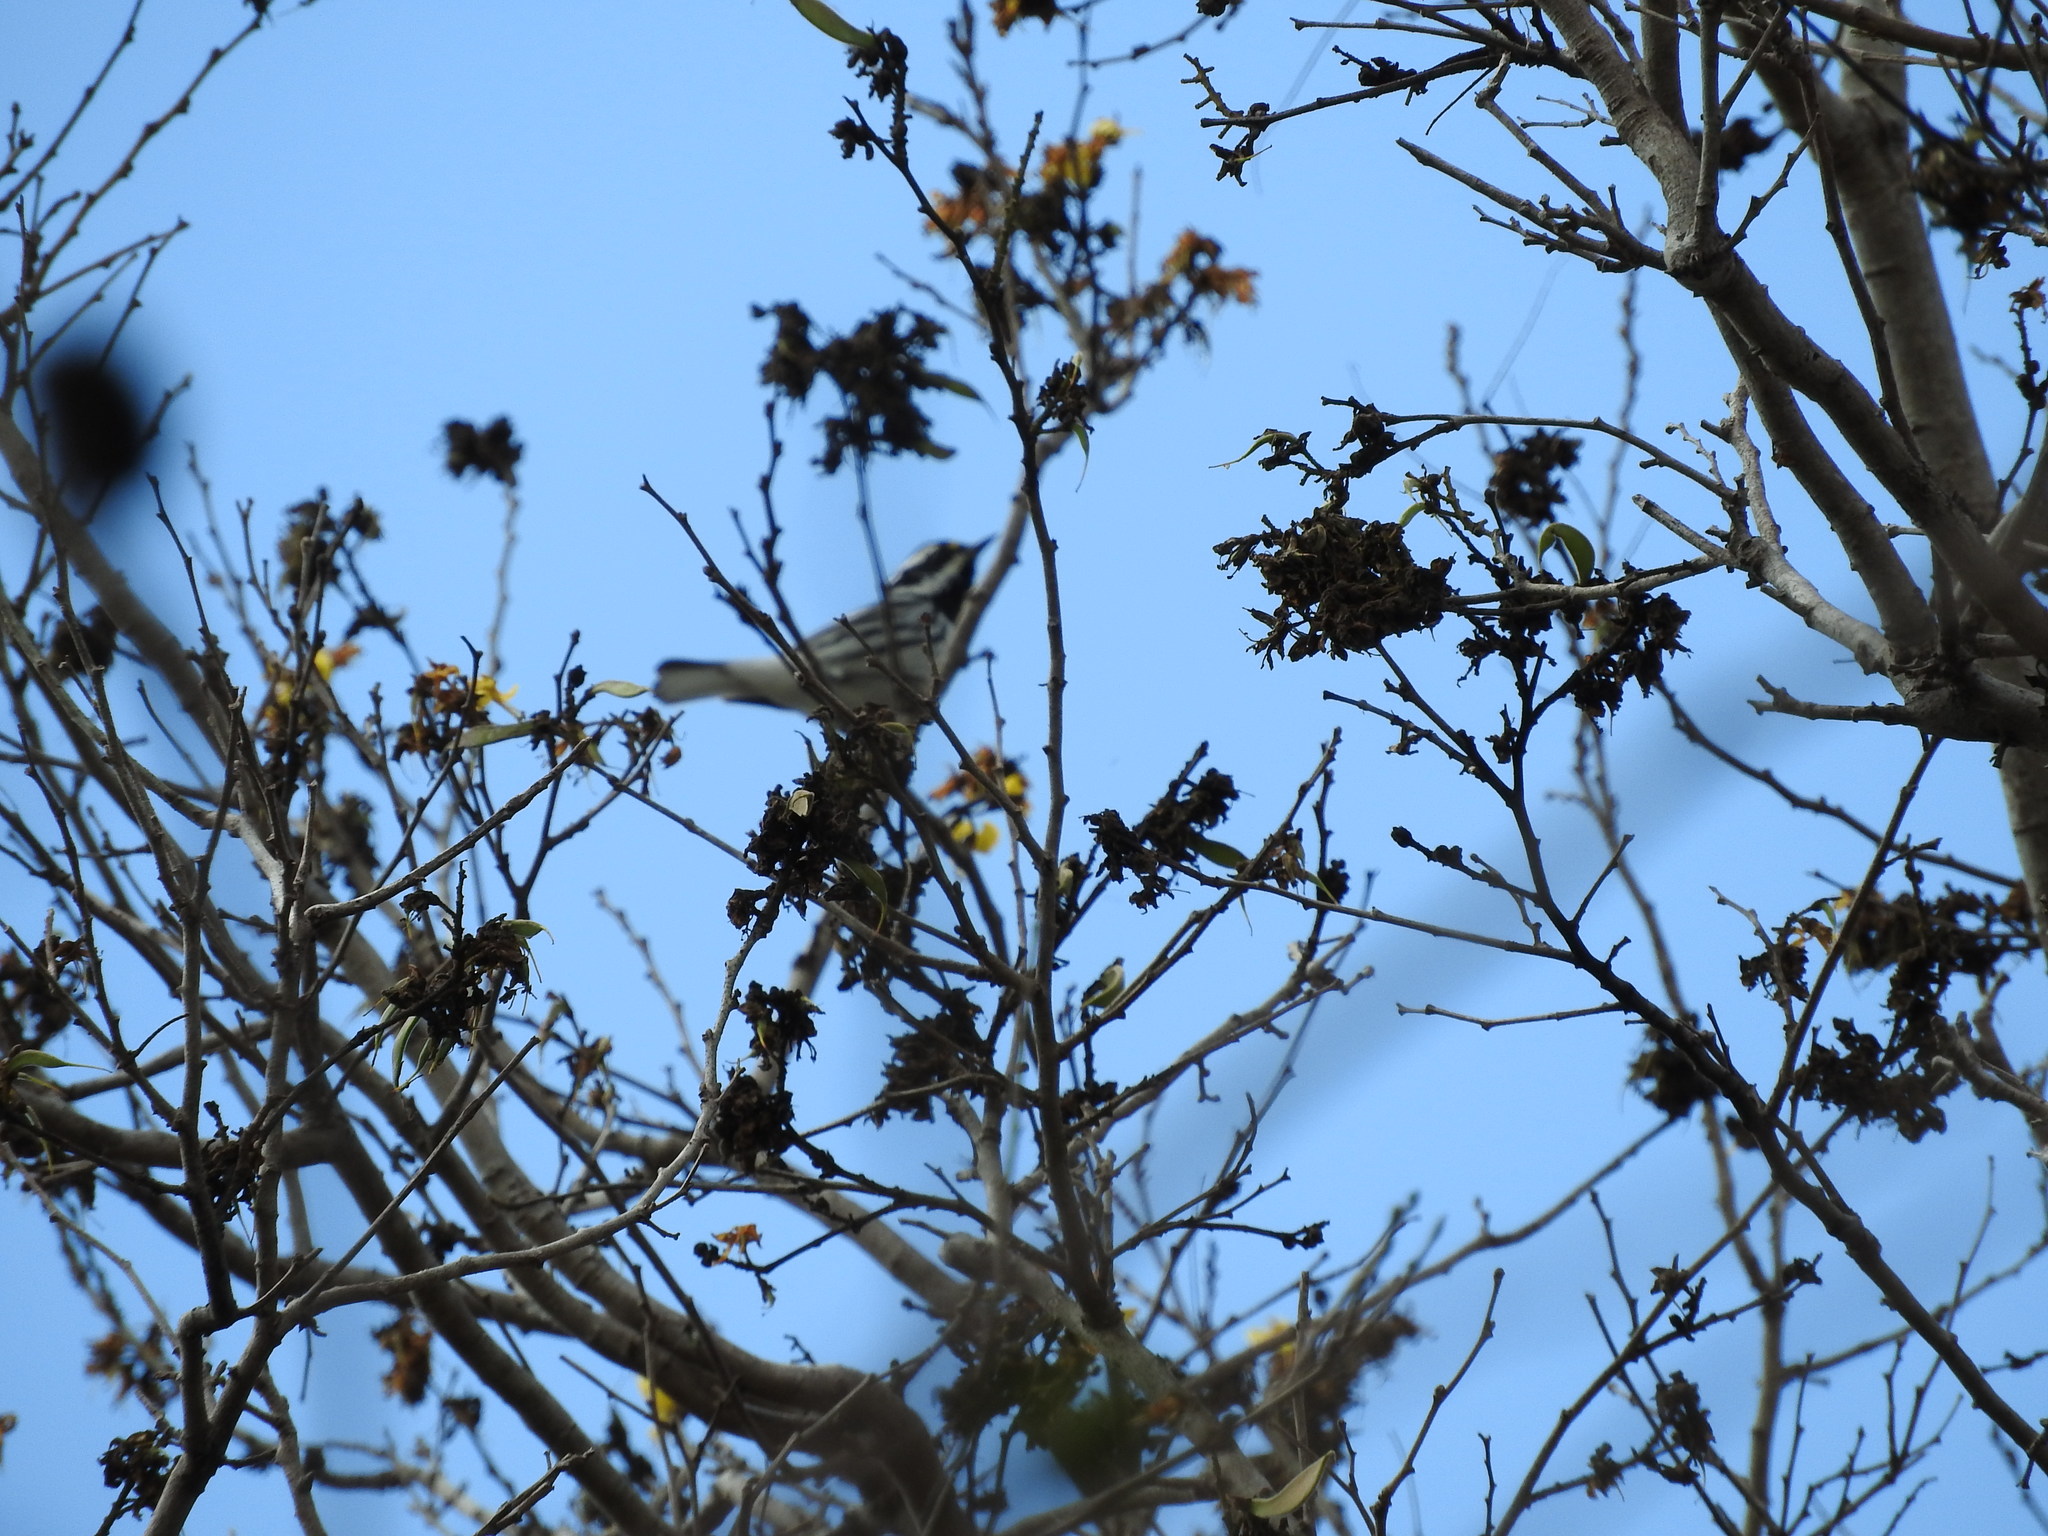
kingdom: Animalia
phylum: Chordata
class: Aves
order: Passeriformes
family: Parulidae
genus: Setophaga
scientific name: Setophaga nigrescens
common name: Black-throated gray warbler
